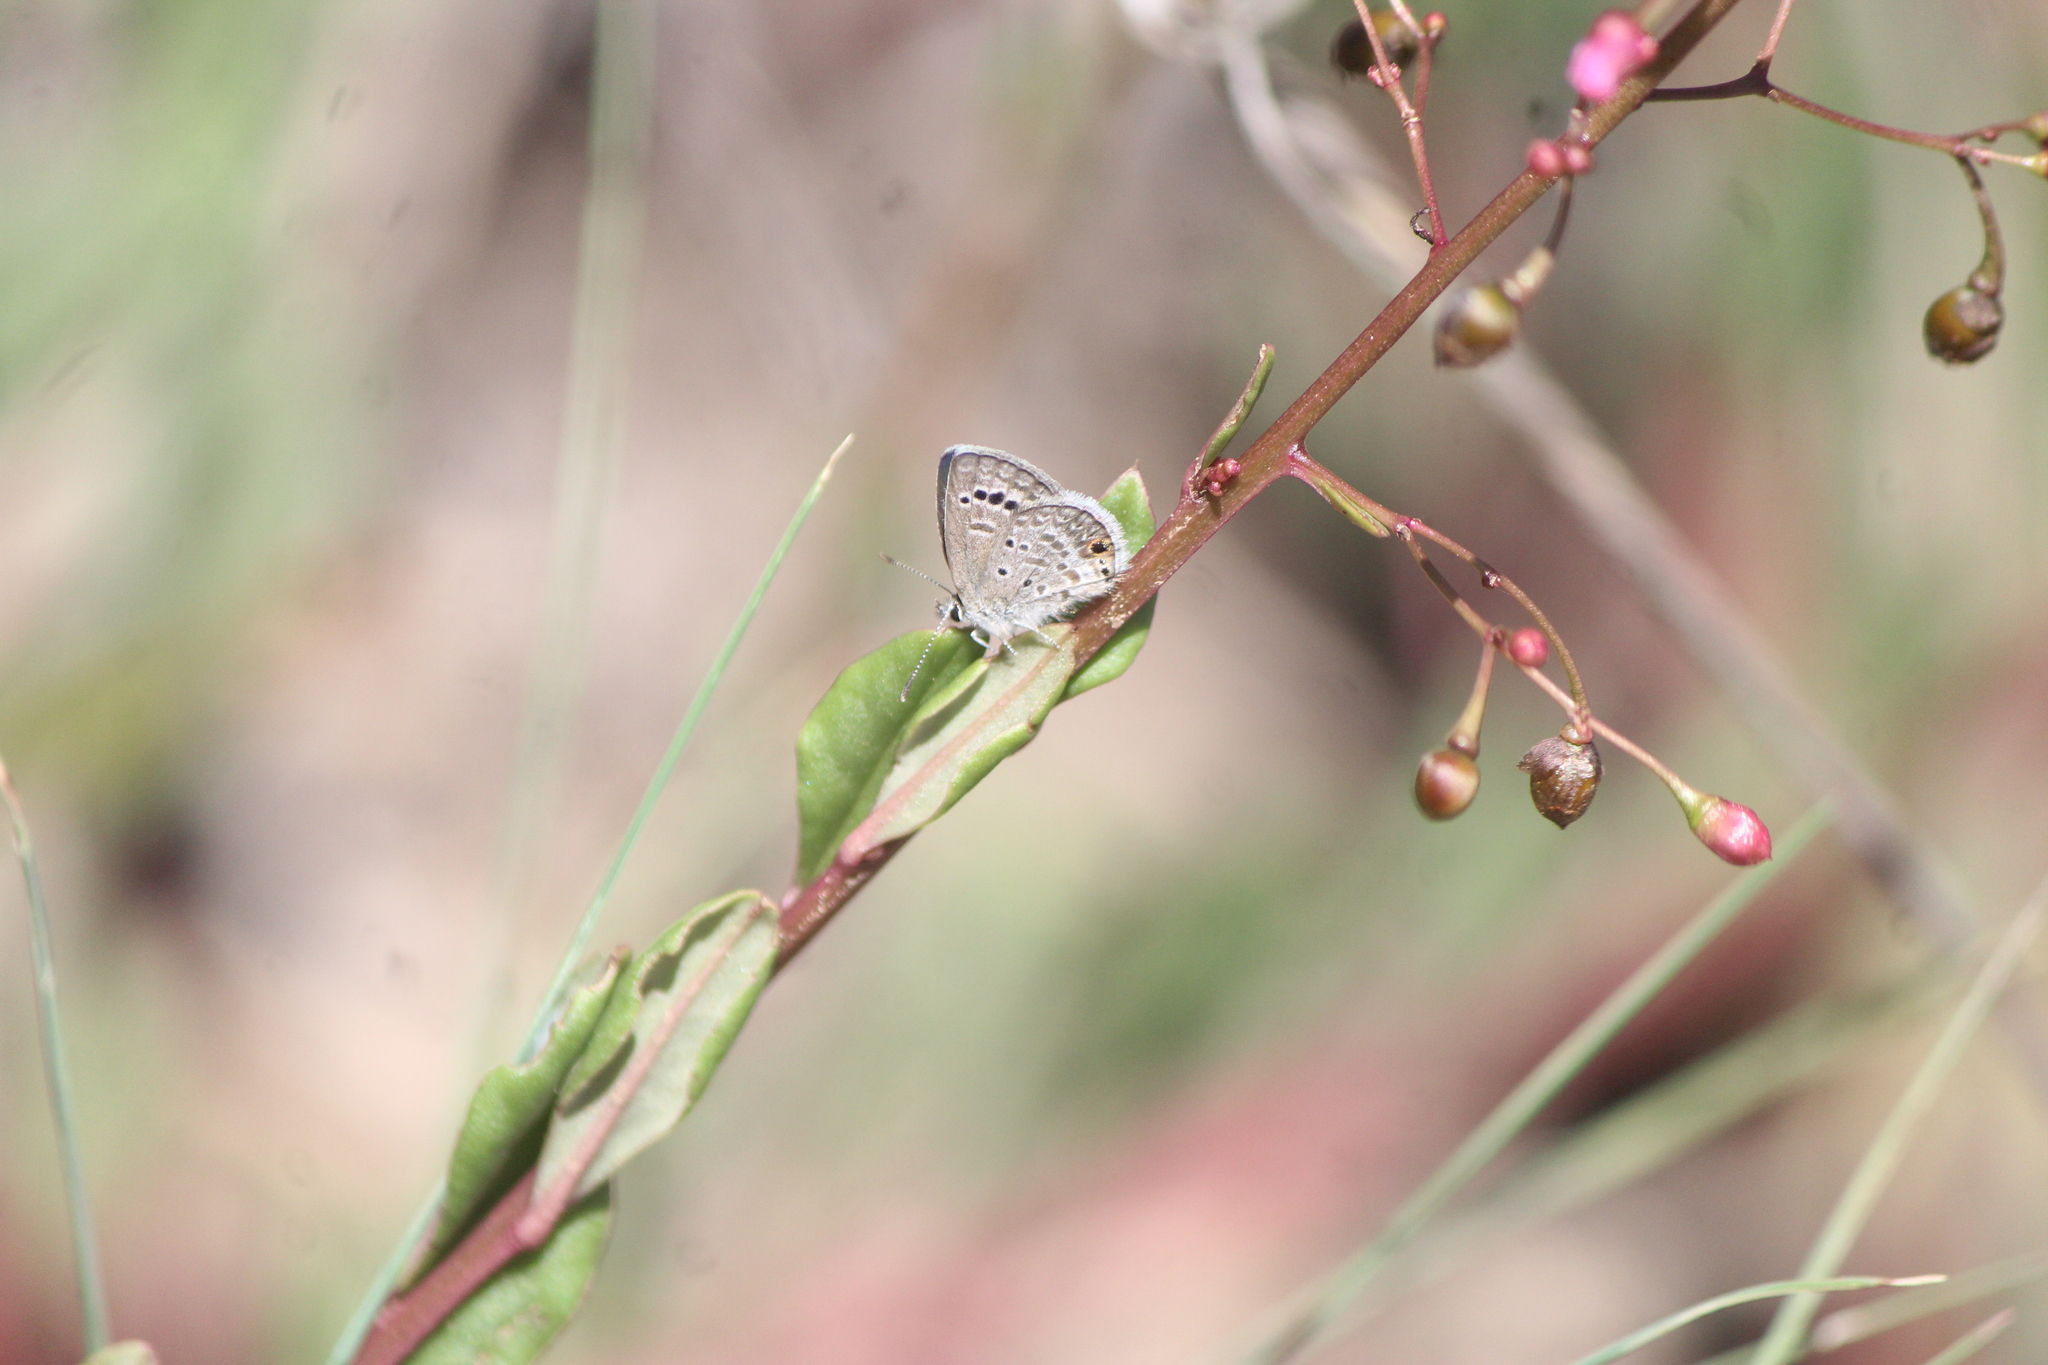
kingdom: Animalia
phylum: Arthropoda
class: Insecta
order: Lepidoptera
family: Lycaenidae
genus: Echinargus
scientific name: Echinargus isola
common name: Reakirt's blue
